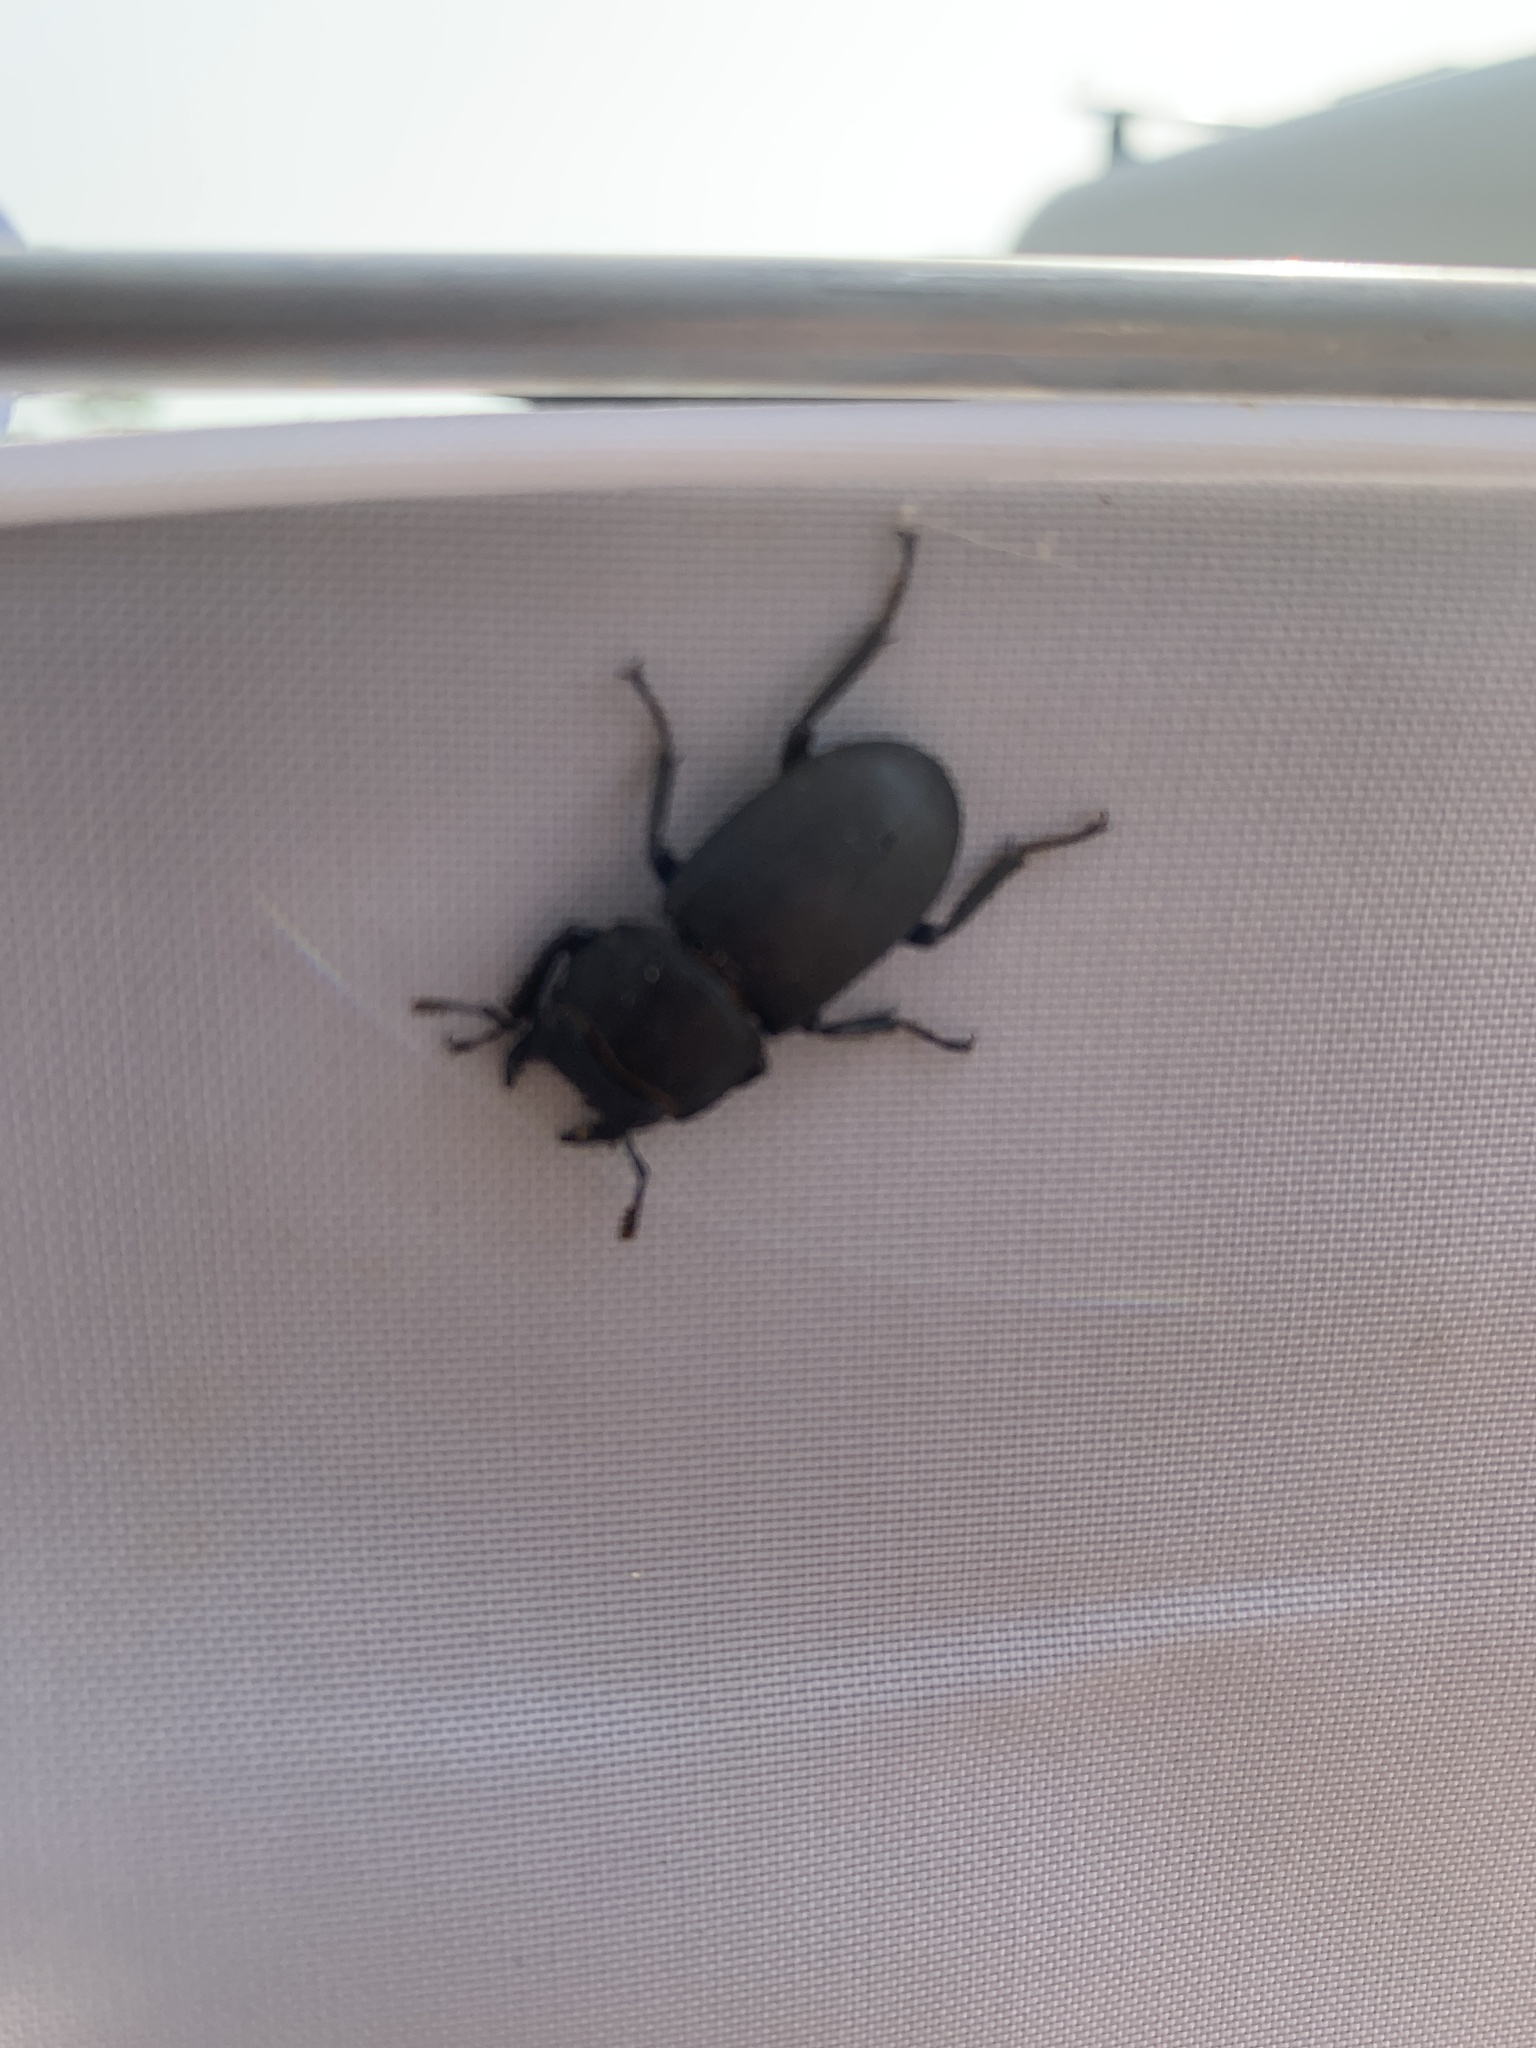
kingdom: Animalia
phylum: Arthropoda
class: Insecta
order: Coleoptera
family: Lucanidae
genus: Dorcus
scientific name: Dorcus parallelipipedus
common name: Lesser stag beetle
